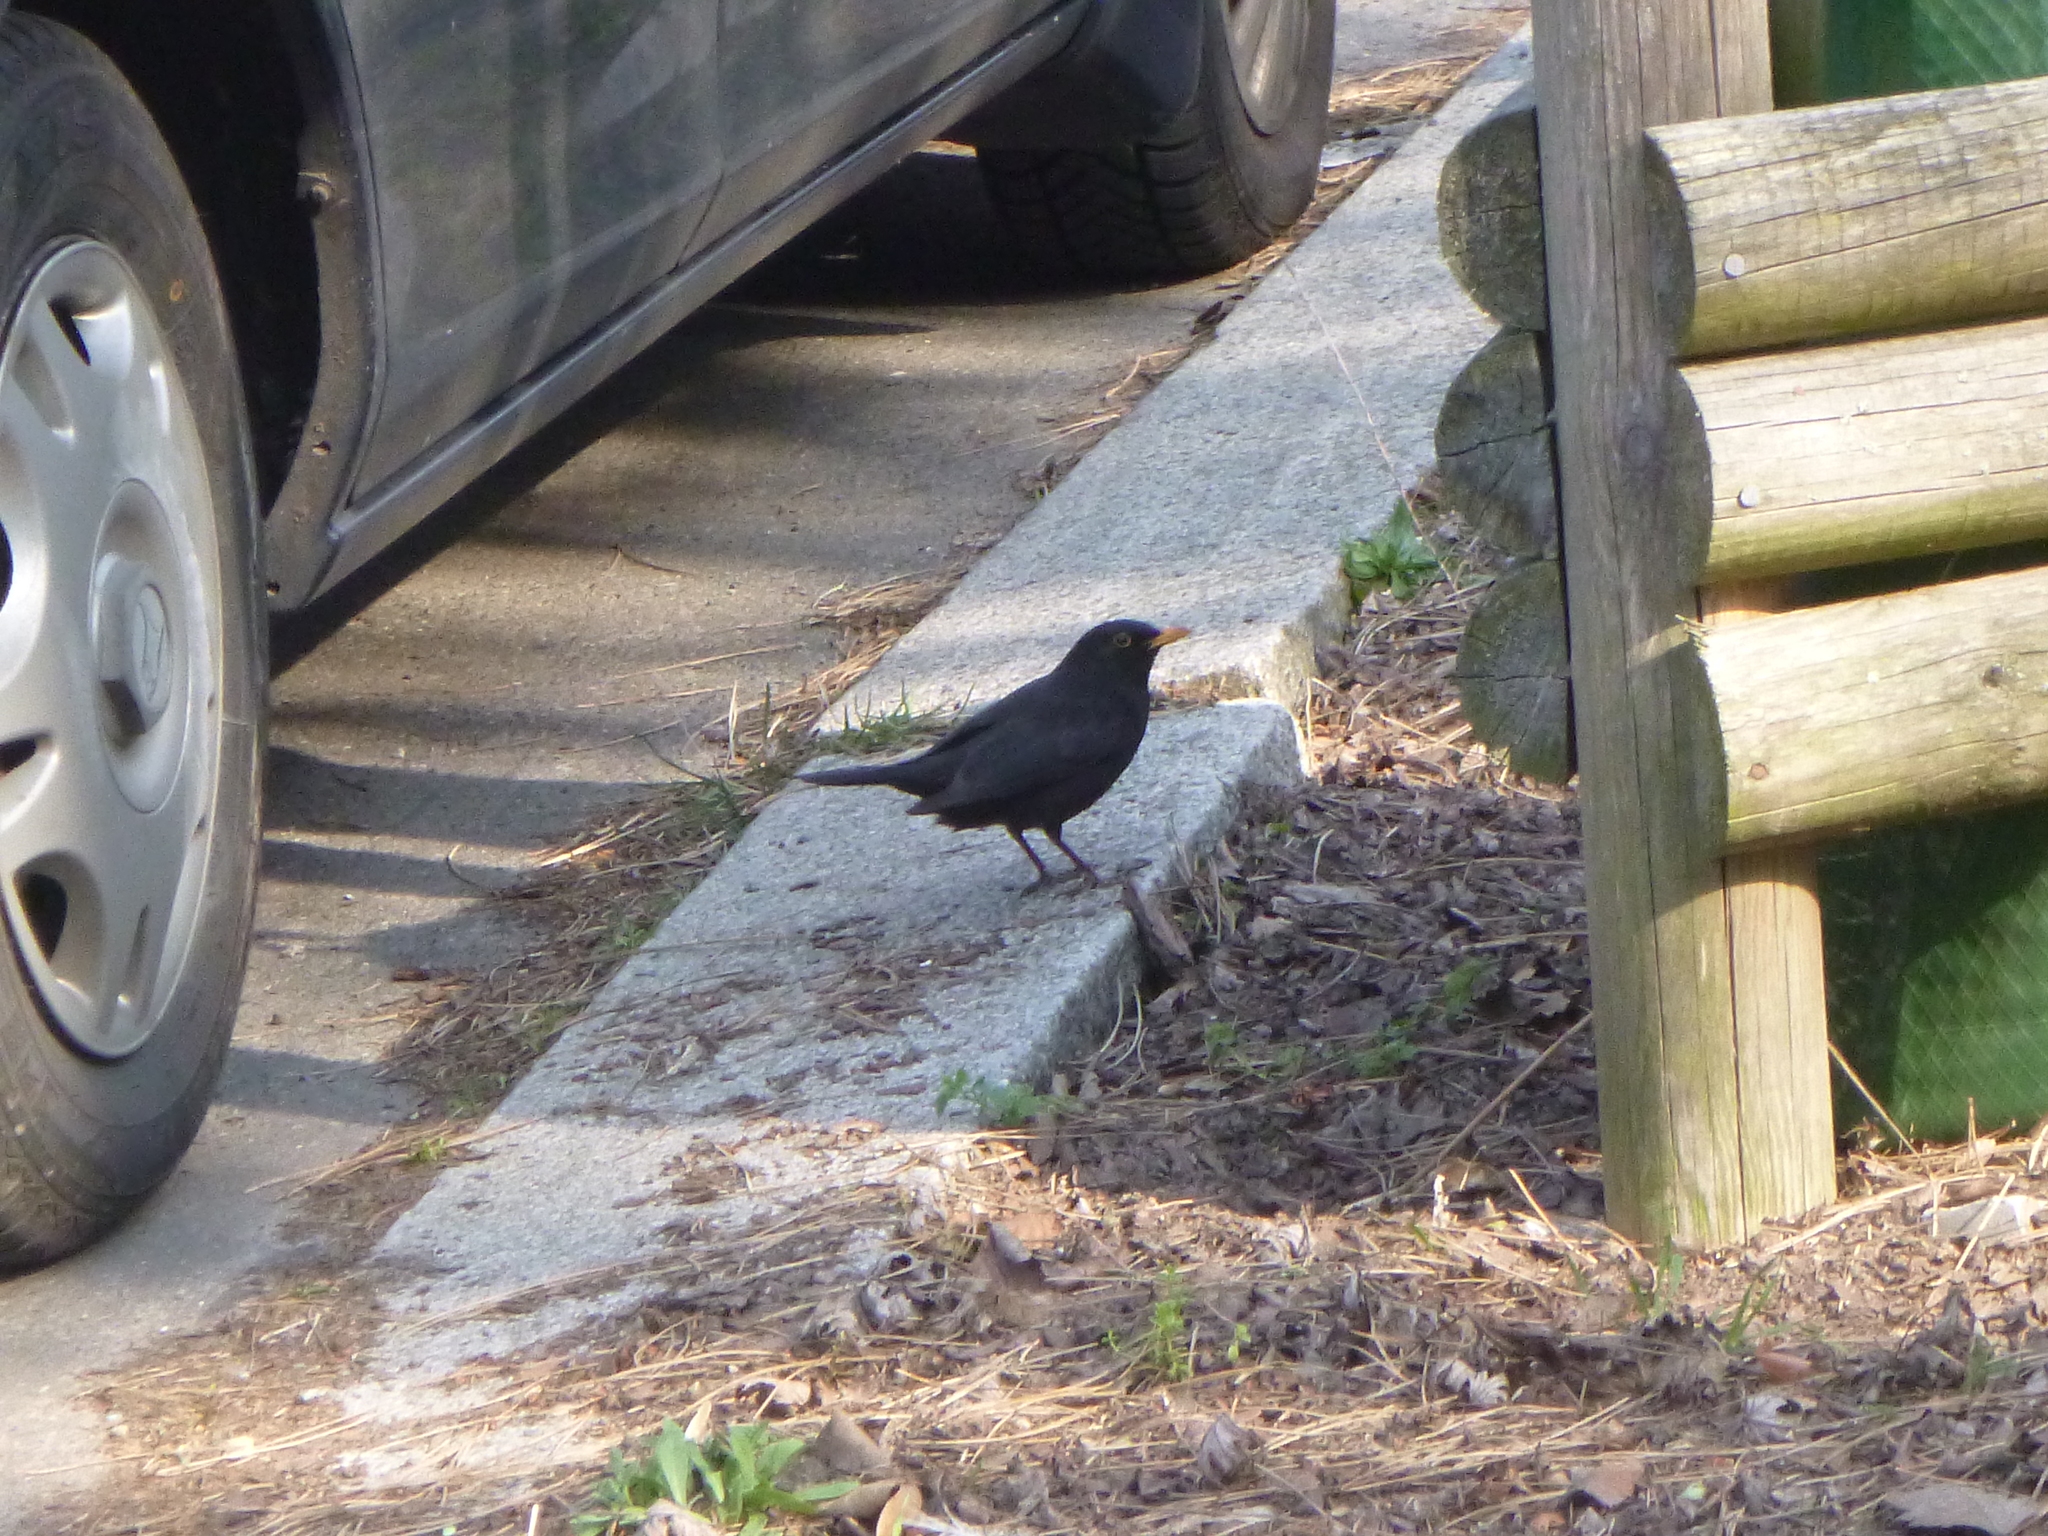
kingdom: Animalia
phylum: Chordata
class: Aves
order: Passeriformes
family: Turdidae
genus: Turdus
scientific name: Turdus merula
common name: Common blackbird
